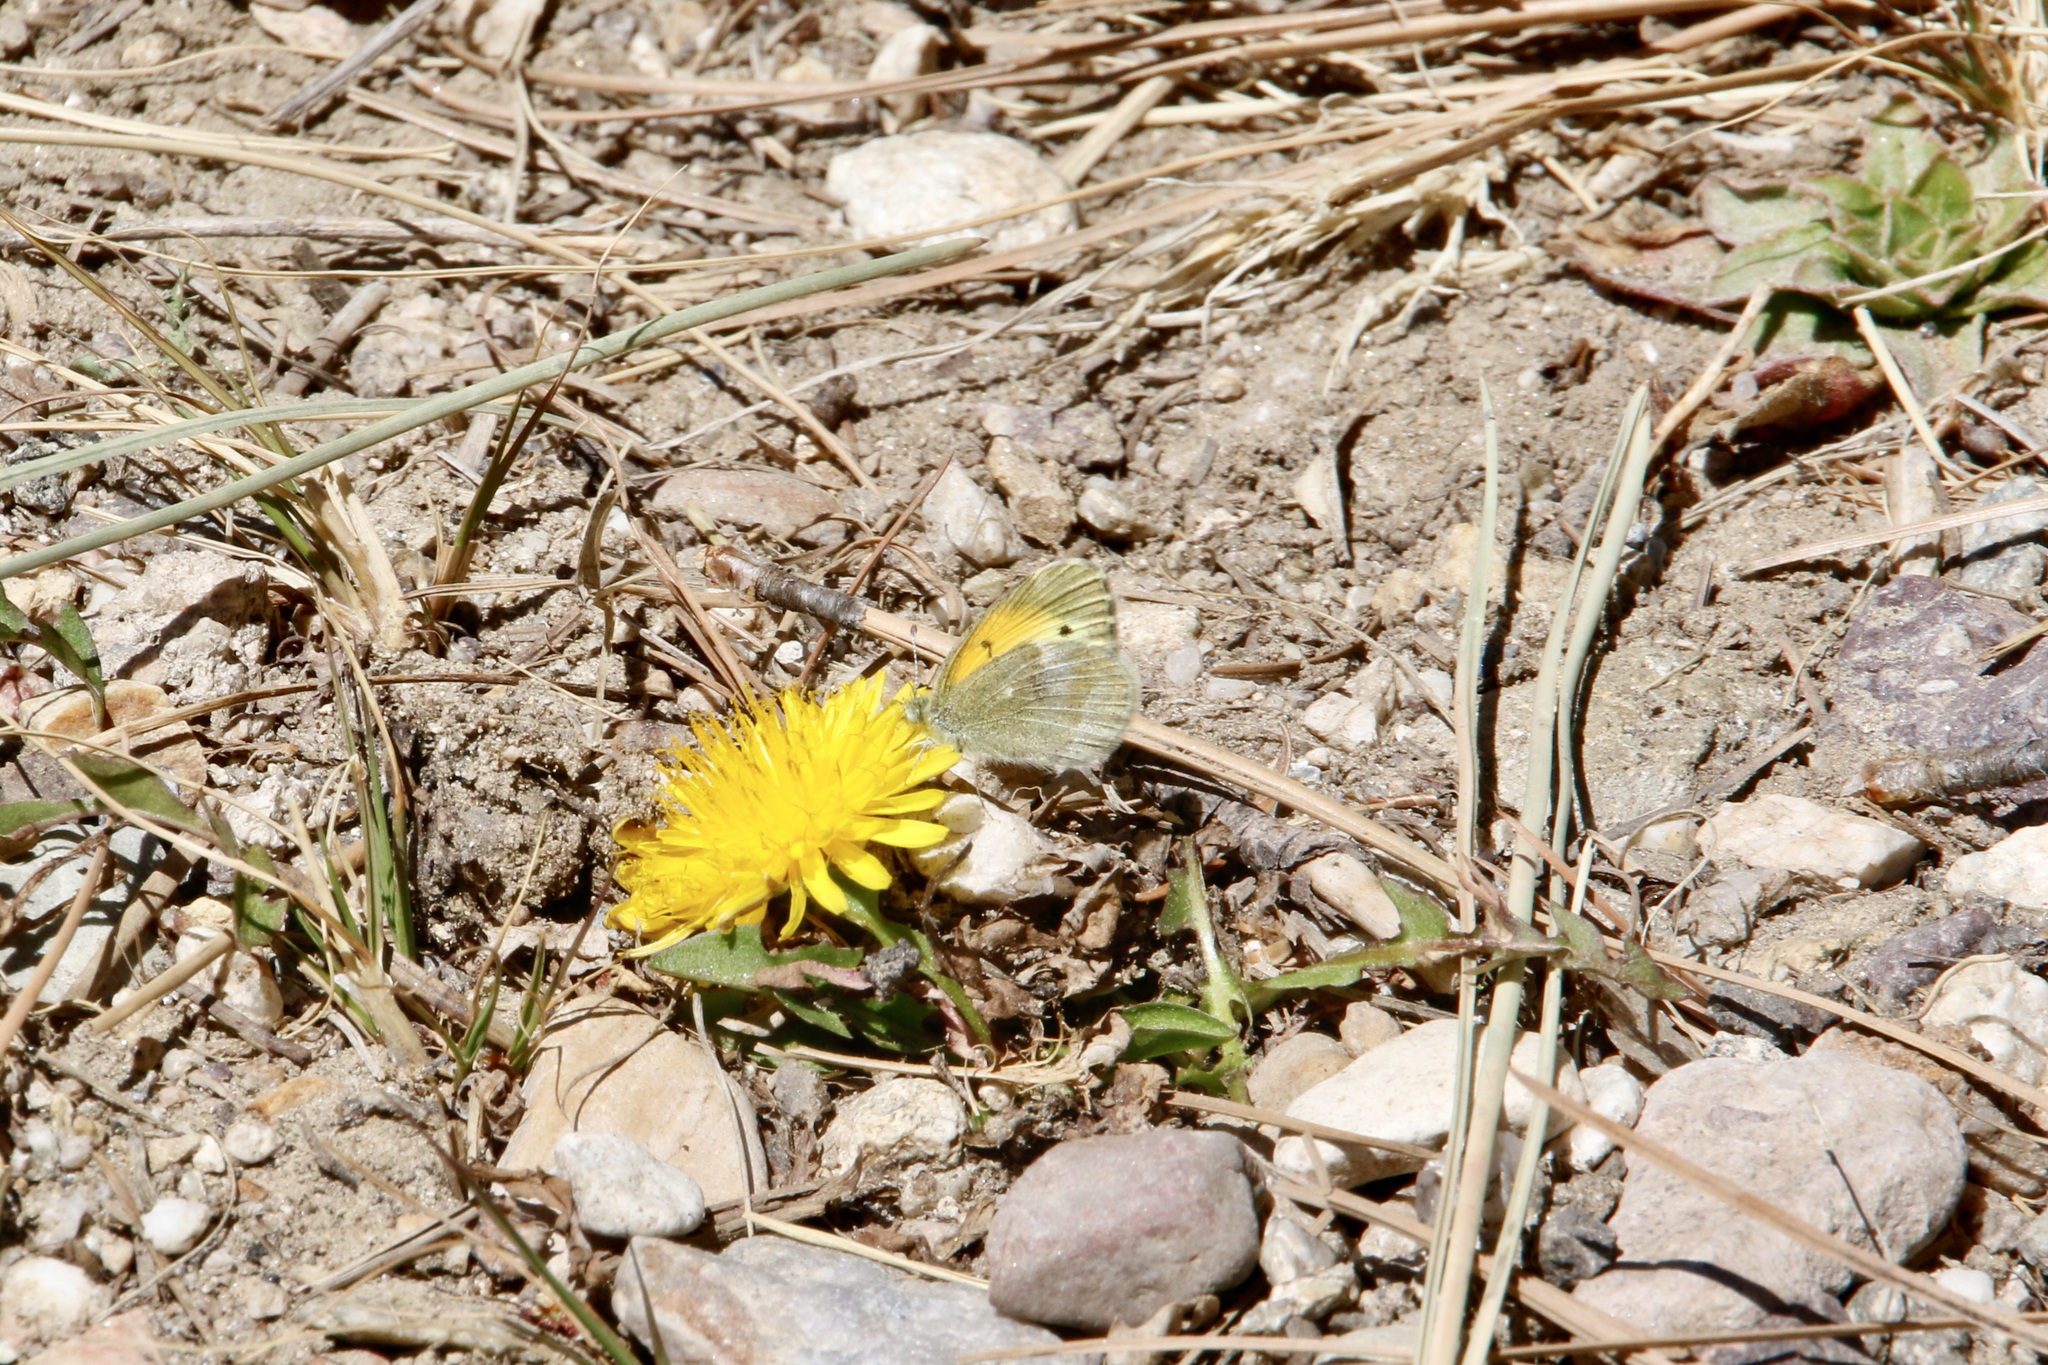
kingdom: Animalia
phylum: Arthropoda
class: Insecta
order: Lepidoptera
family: Pieridae
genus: Nathalis
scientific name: Nathalis iole
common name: Dainty sulphur
